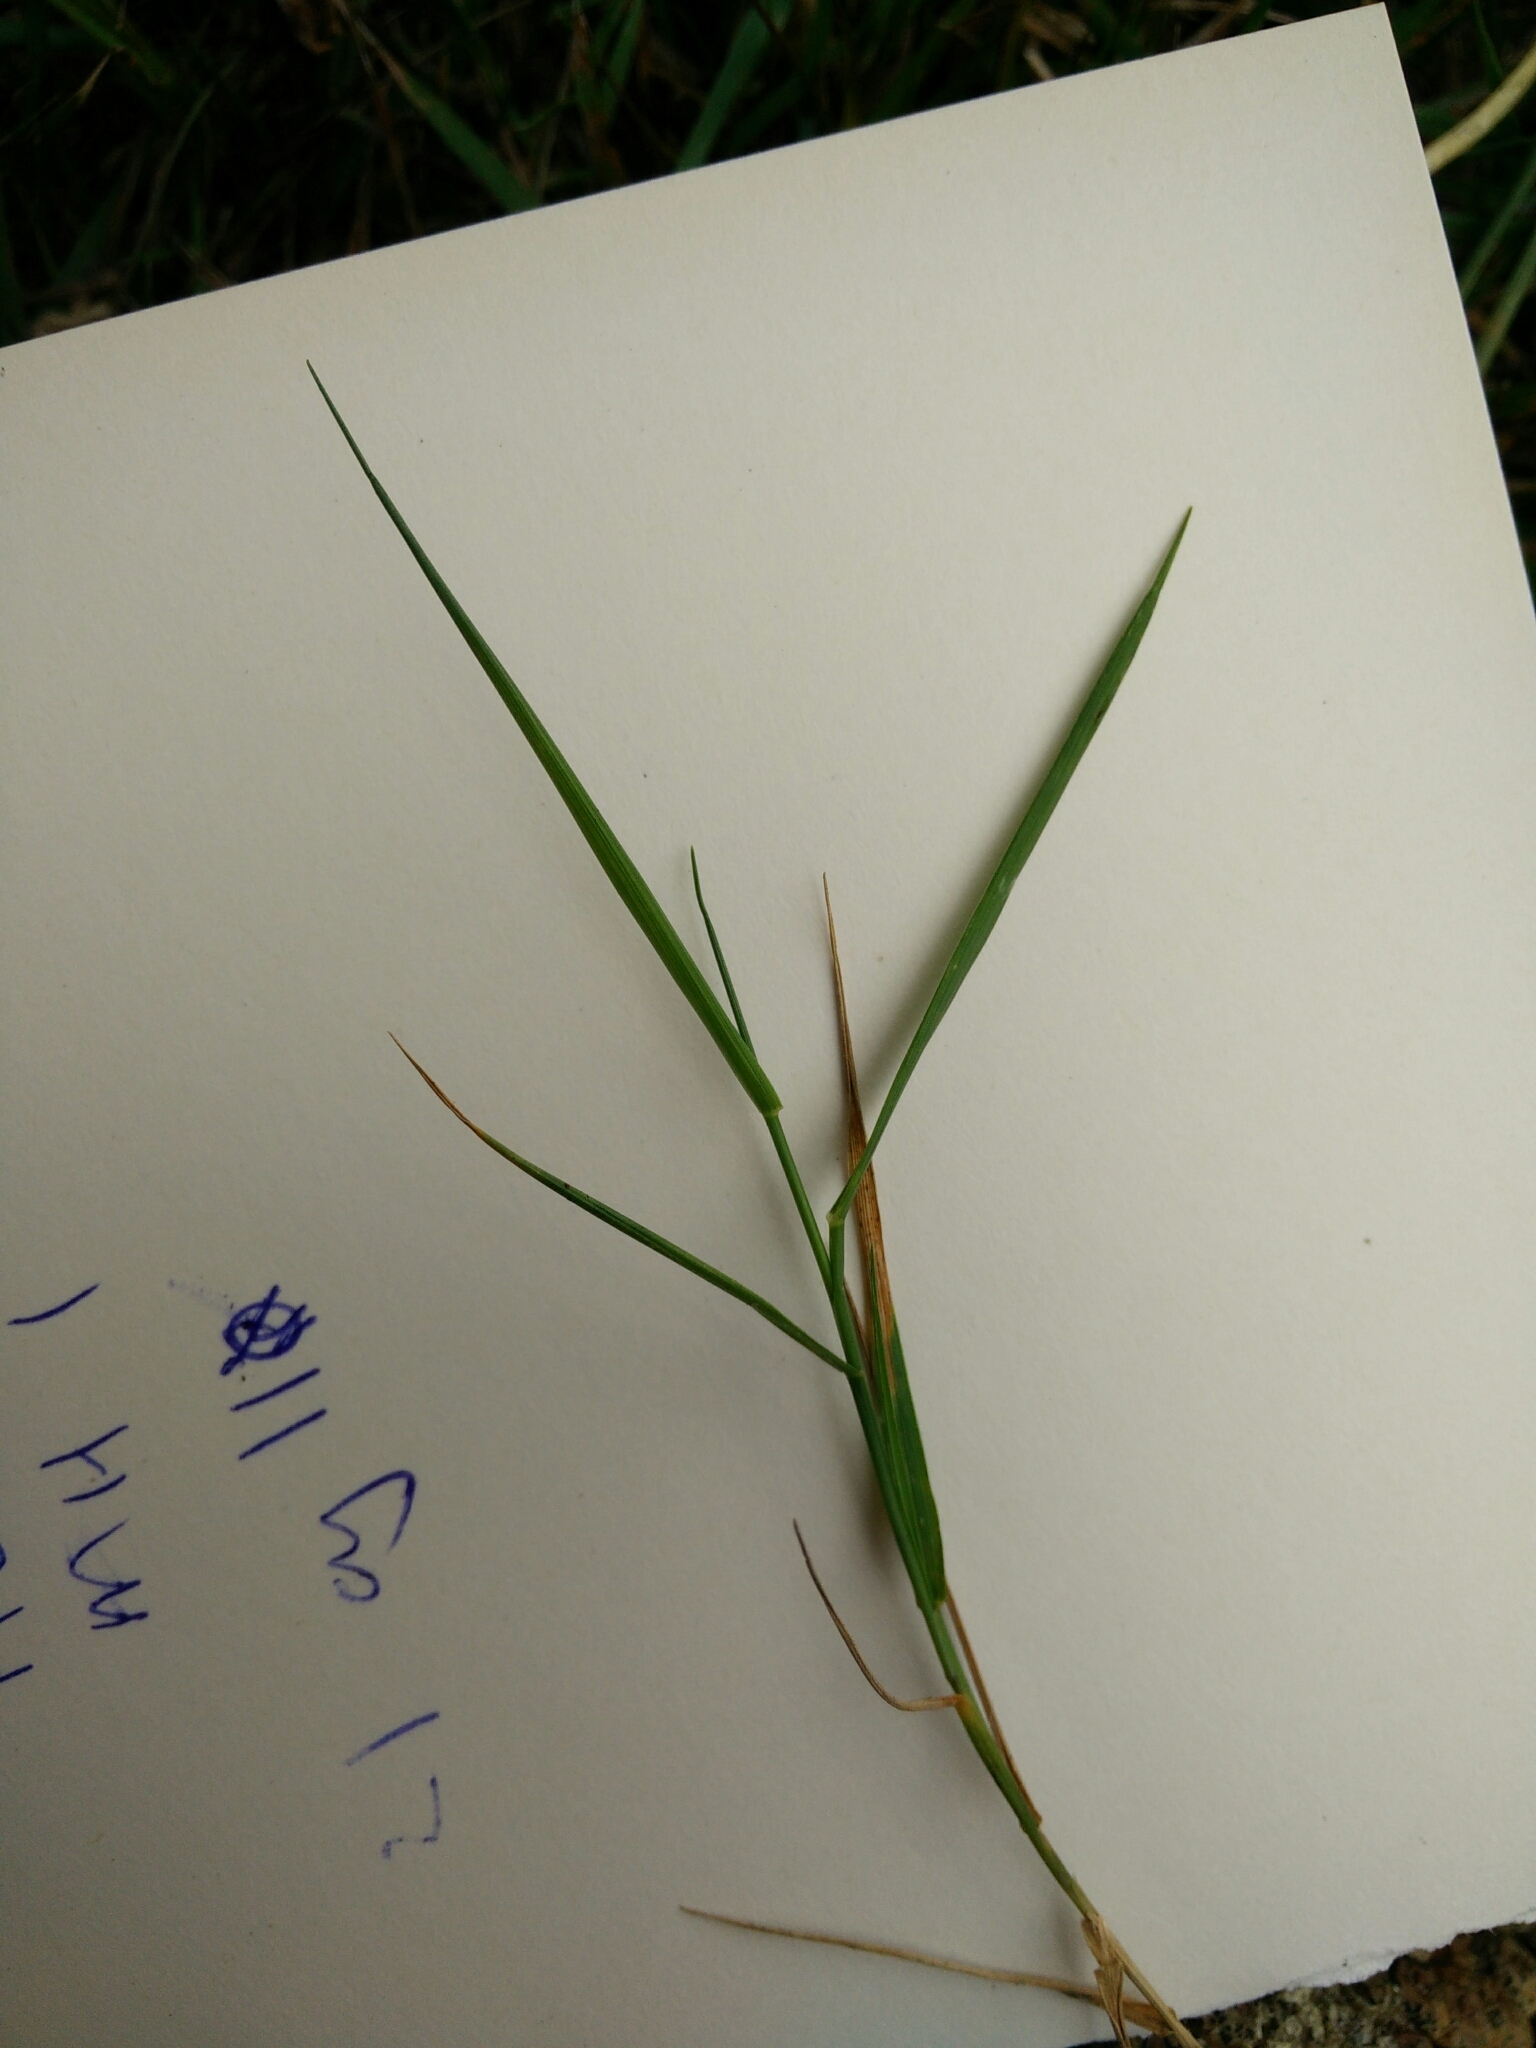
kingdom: Plantae
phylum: Tracheophyta
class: Liliopsida
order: Poales
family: Poaceae
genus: Agrostis
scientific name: Agrostis capillaris
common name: Colonial bentgrass
